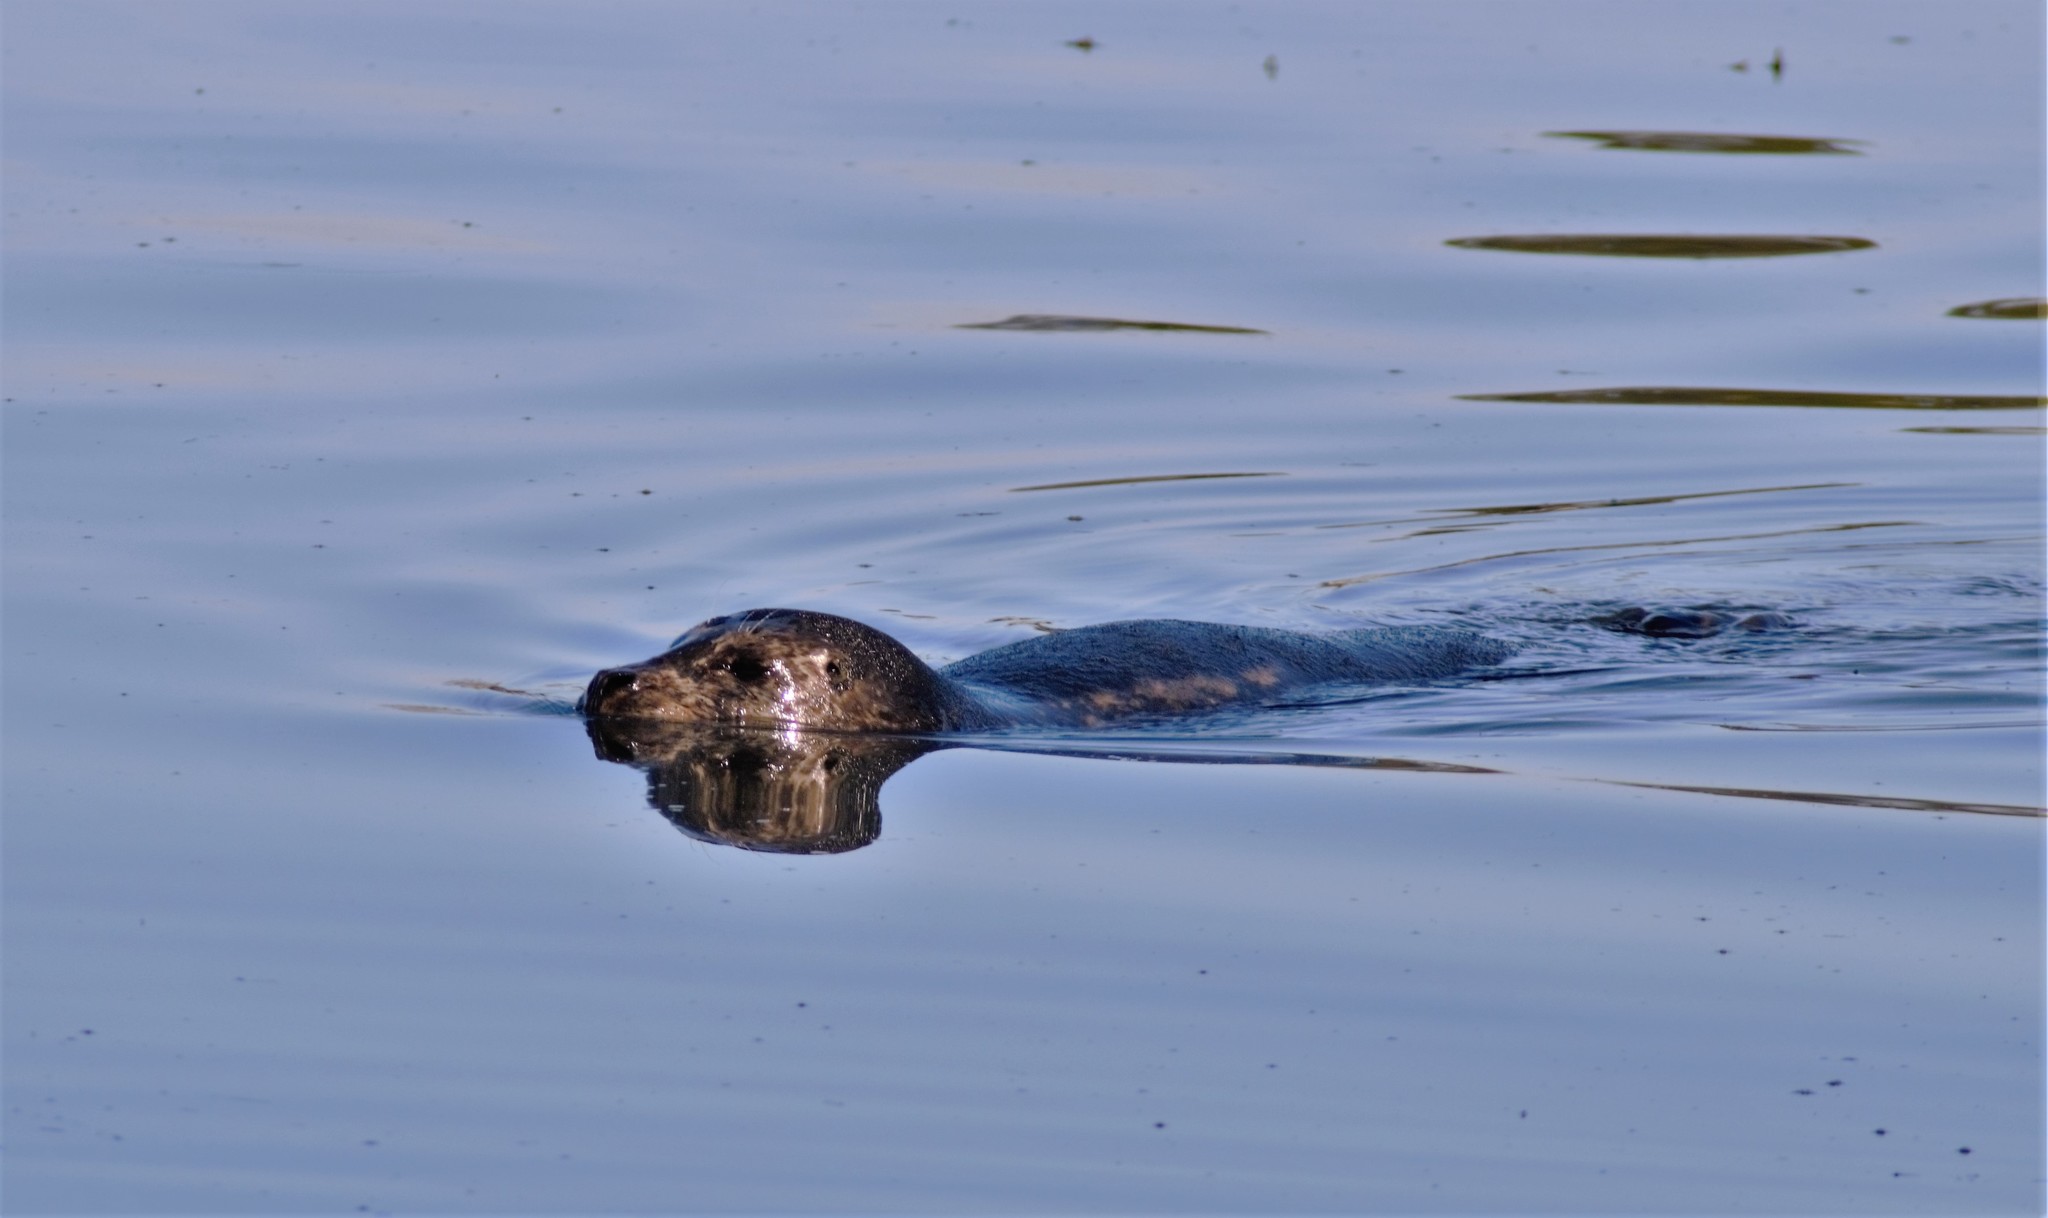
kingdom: Animalia
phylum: Chordata
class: Mammalia
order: Carnivora
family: Phocidae
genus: Phoca
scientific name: Phoca vitulina
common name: Harbor seal
